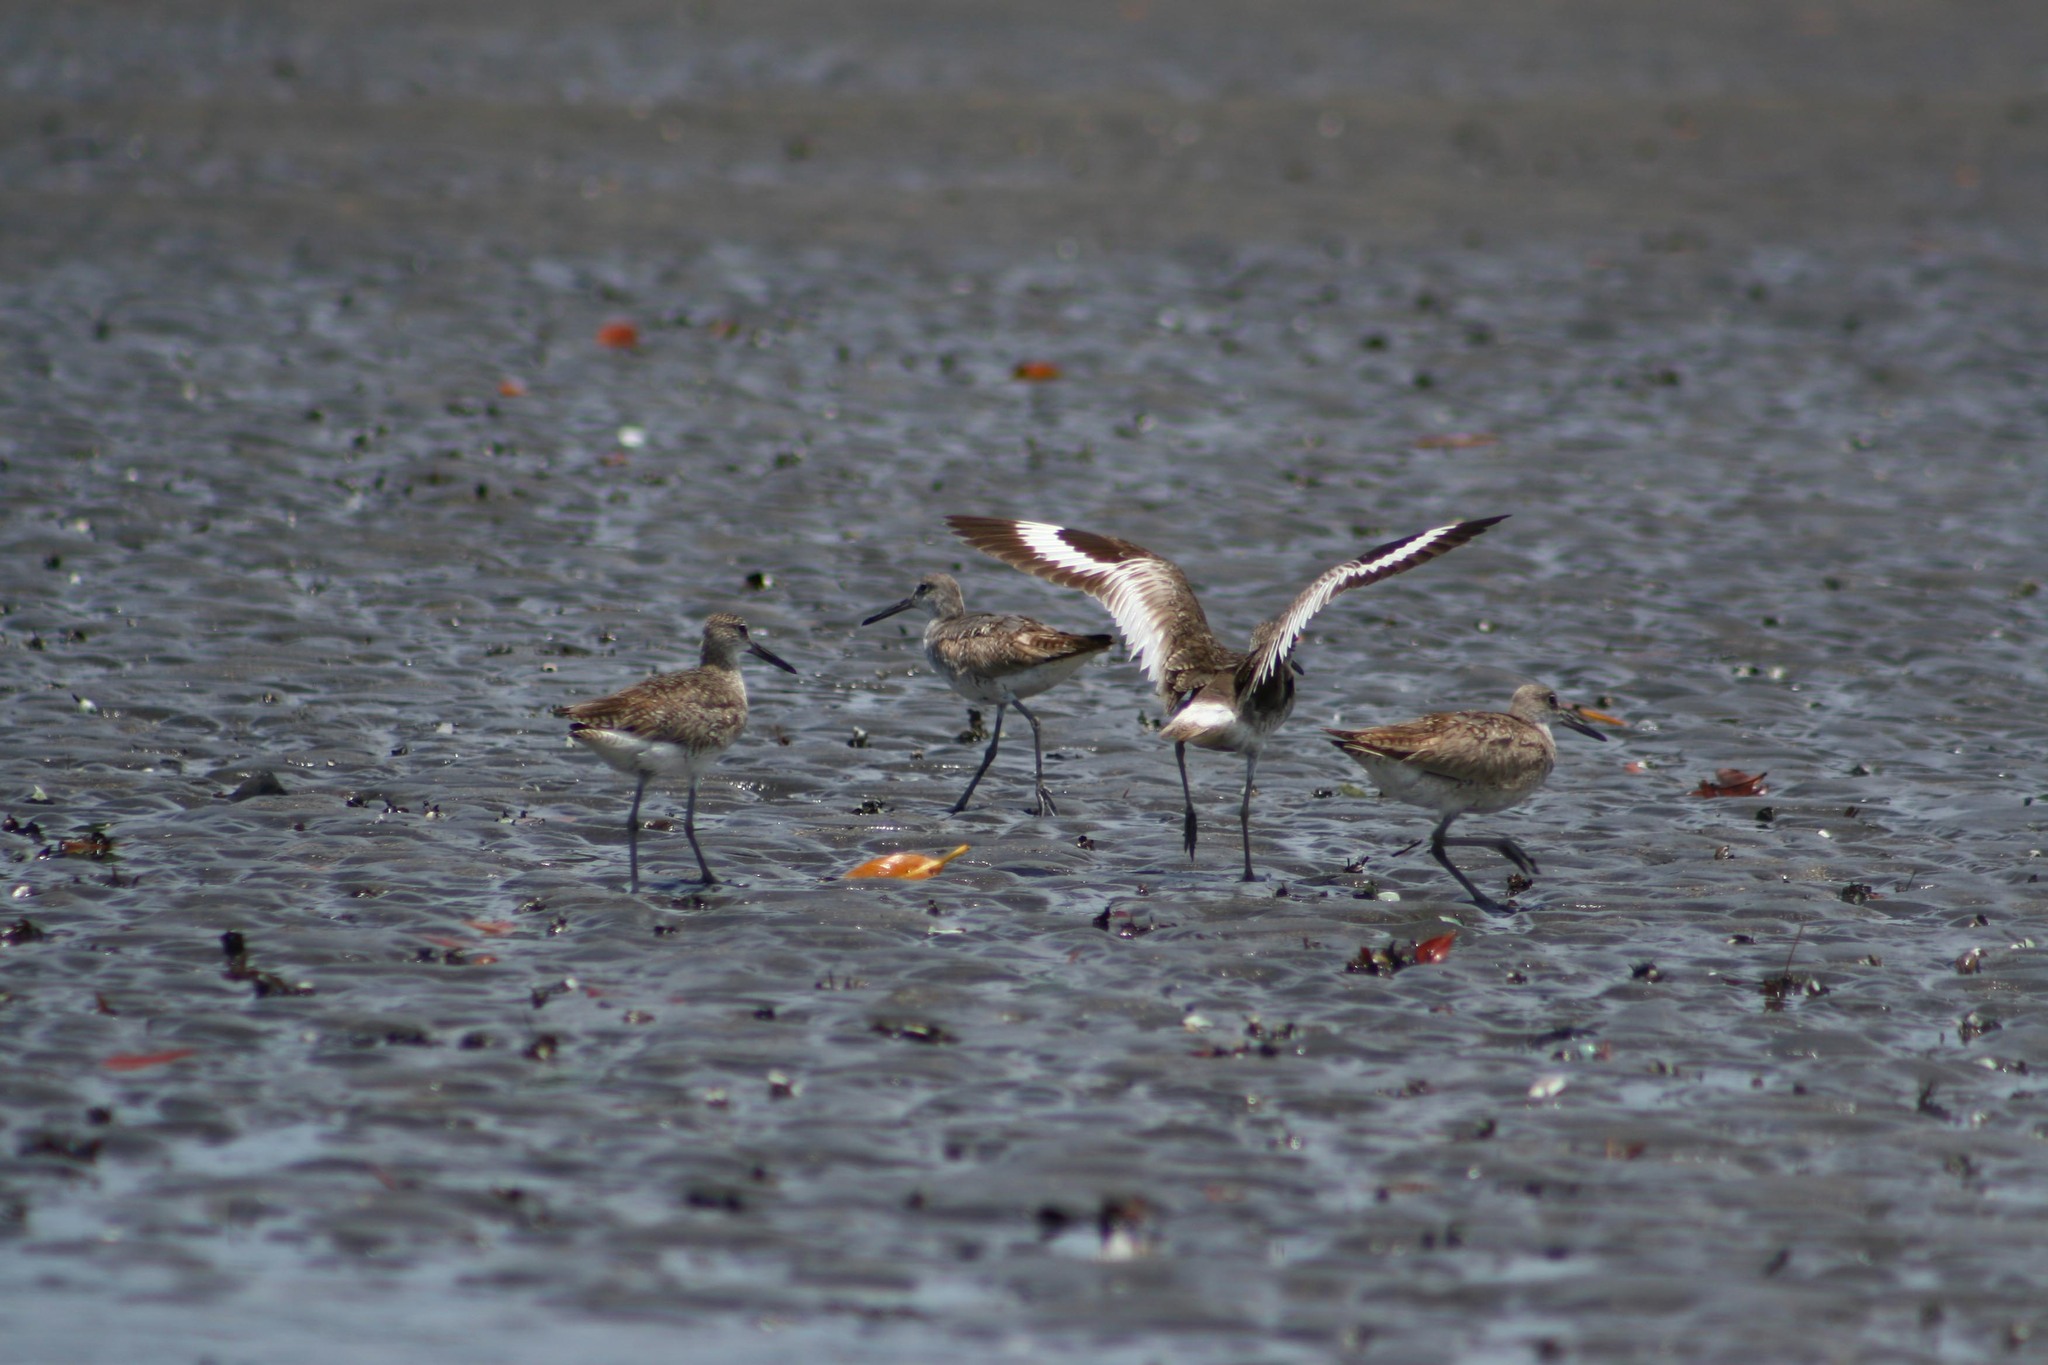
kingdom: Animalia
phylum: Chordata
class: Aves
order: Charadriiformes
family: Scolopacidae
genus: Tringa
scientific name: Tringa semipalmata
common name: Willet
